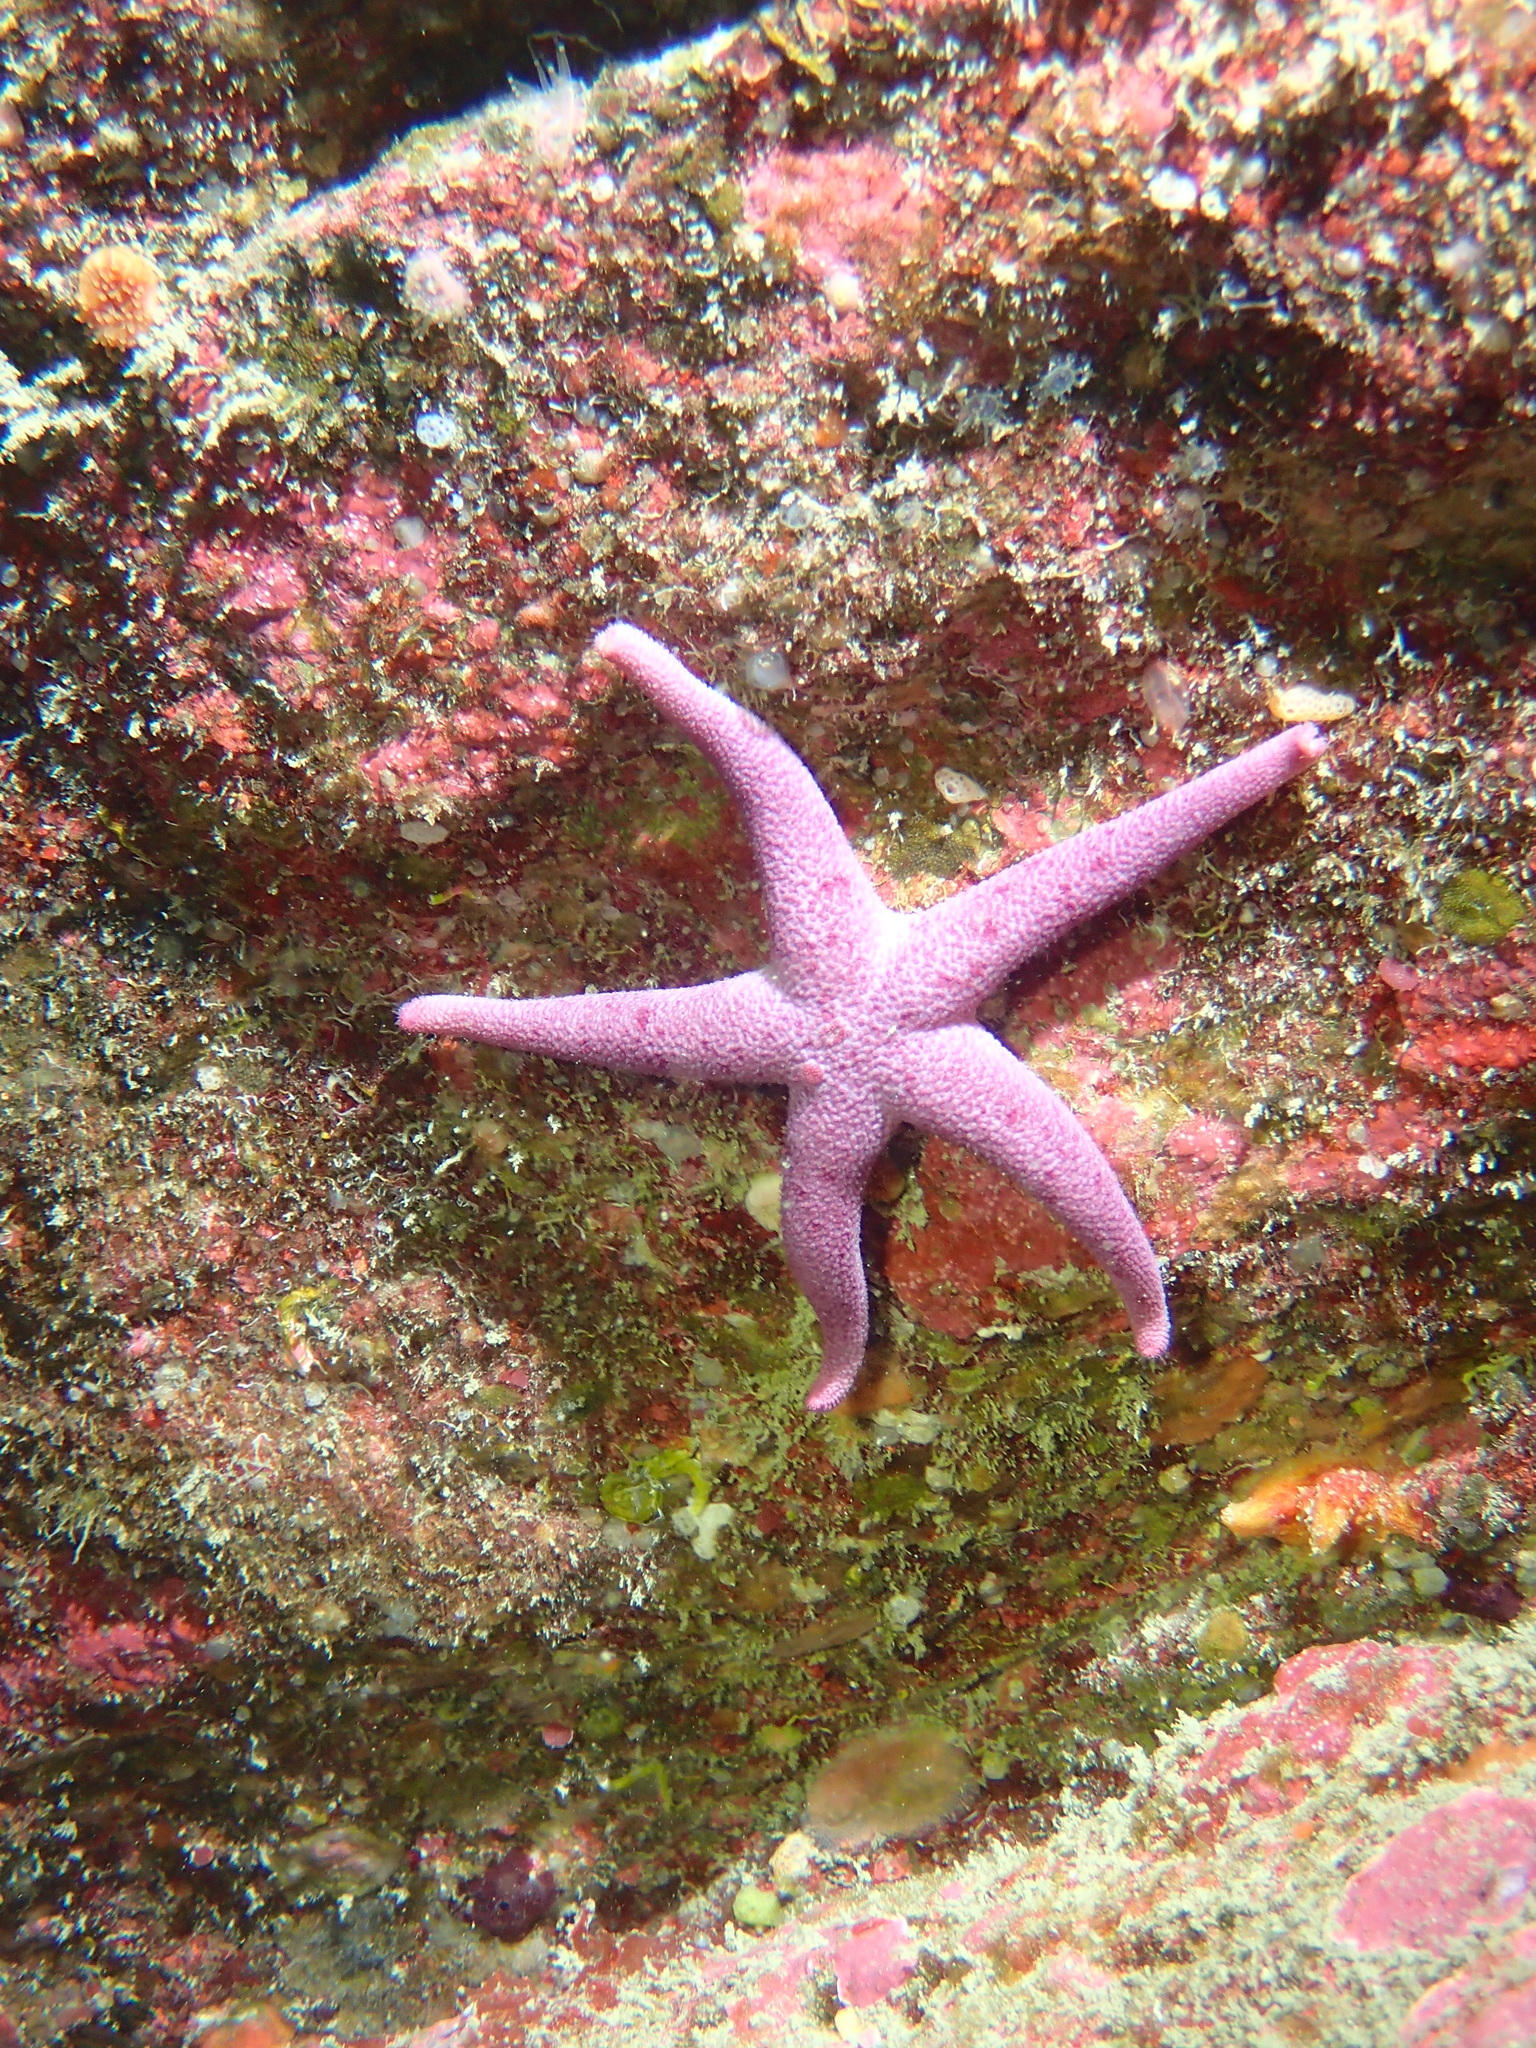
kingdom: Animalia
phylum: Echinodermata
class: Asteroidea
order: Spinulosida
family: Echinasteridae
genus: Henricia
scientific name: Henricia sanguinolenta
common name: Blood star
